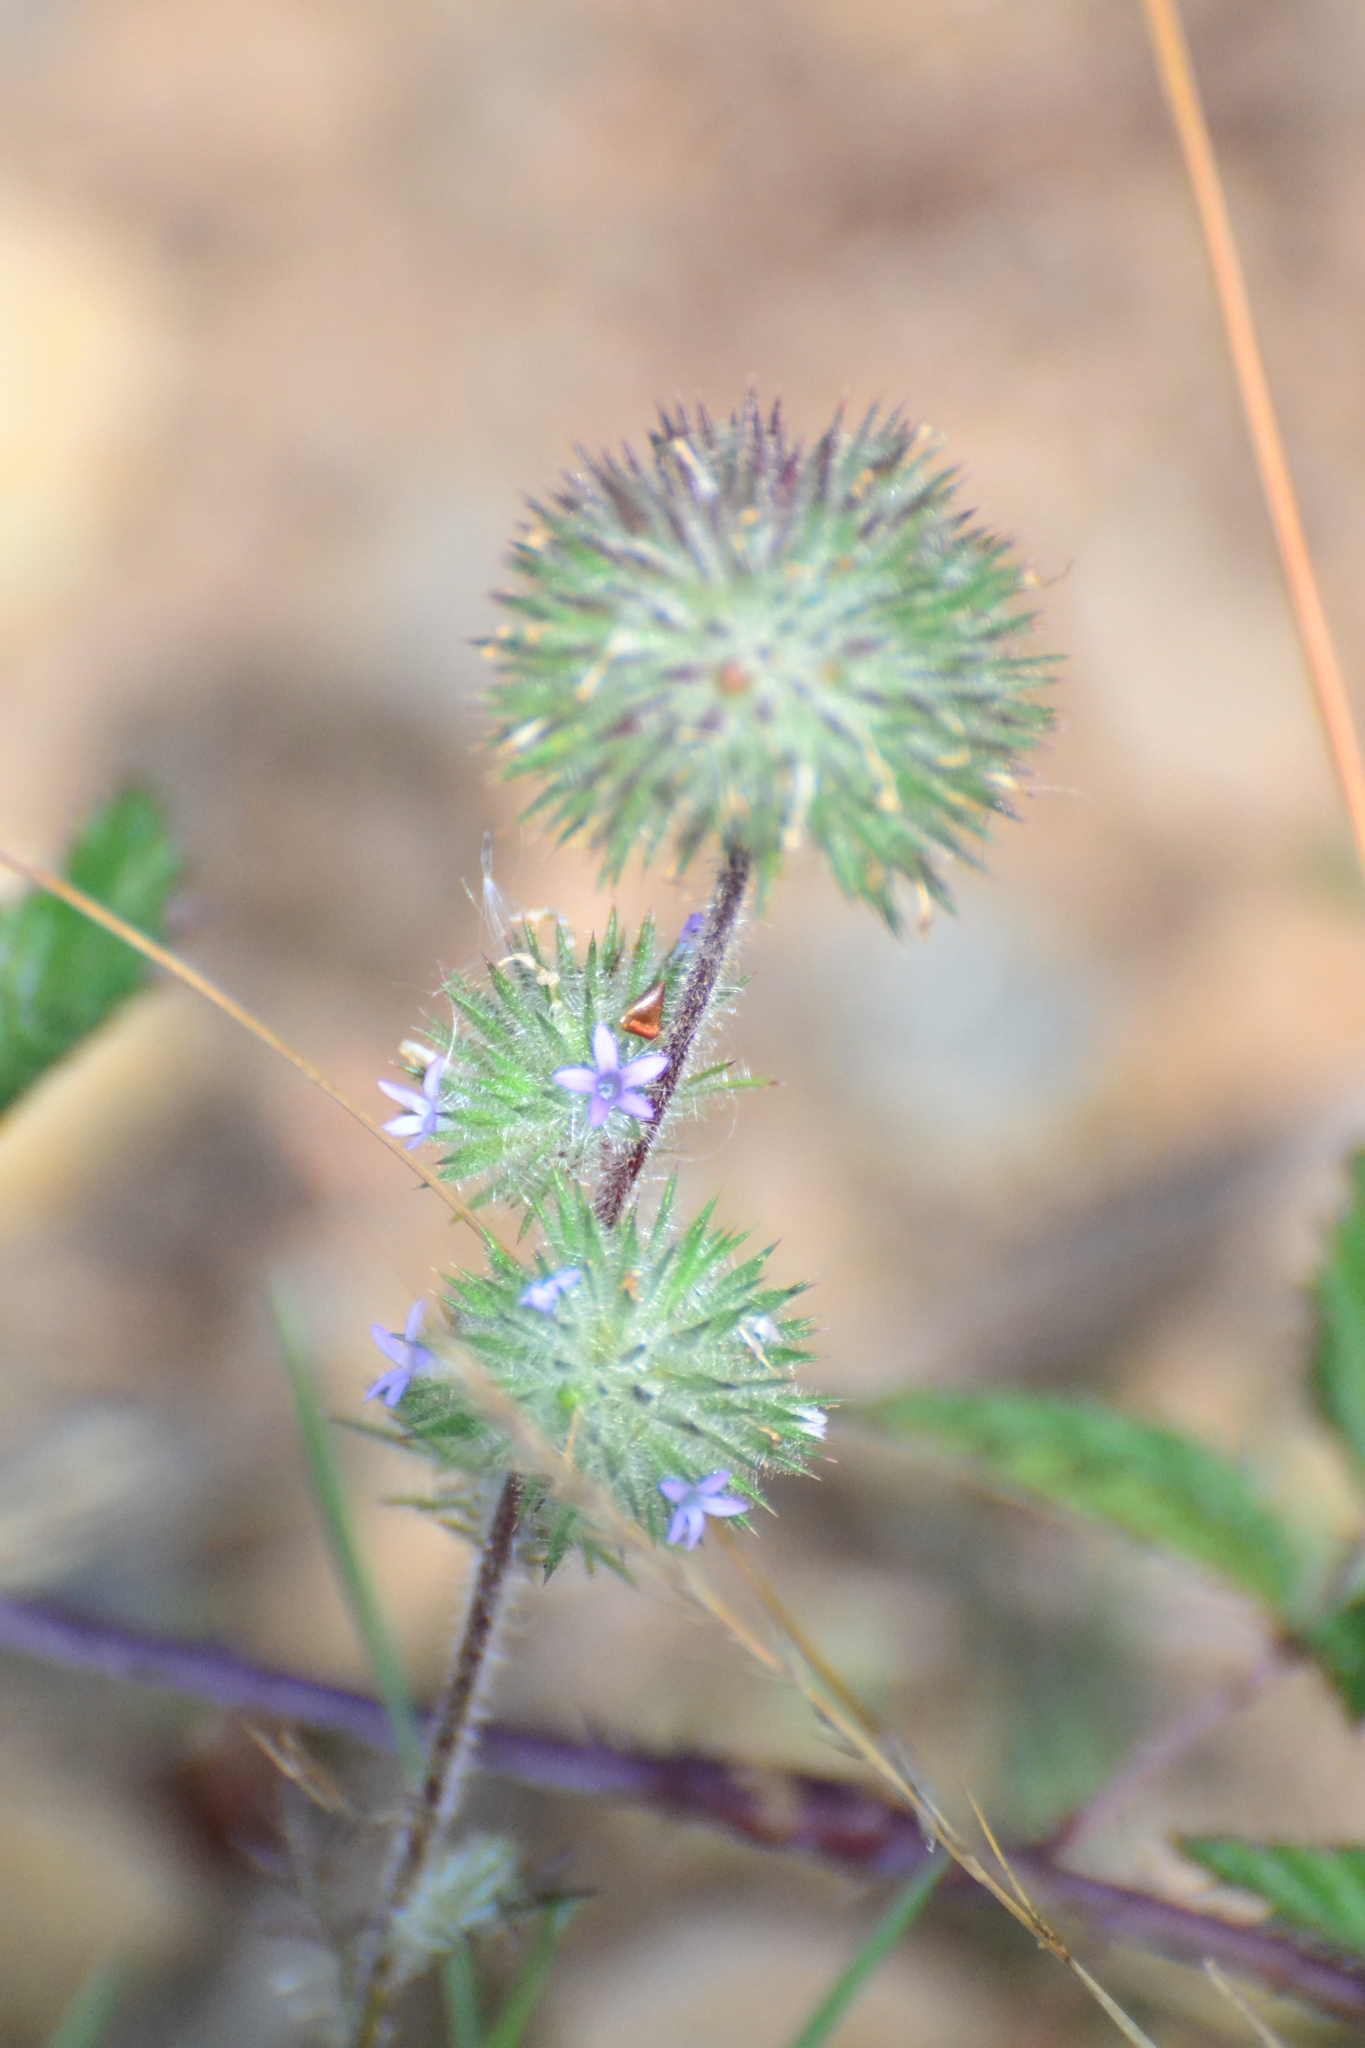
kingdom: Plantae
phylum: Tracheophyta
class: Magnoliopsida
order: Ericales
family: Polemoniaceae
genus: Navarretia
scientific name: Navarretia squarrosa
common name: Skunkweed
